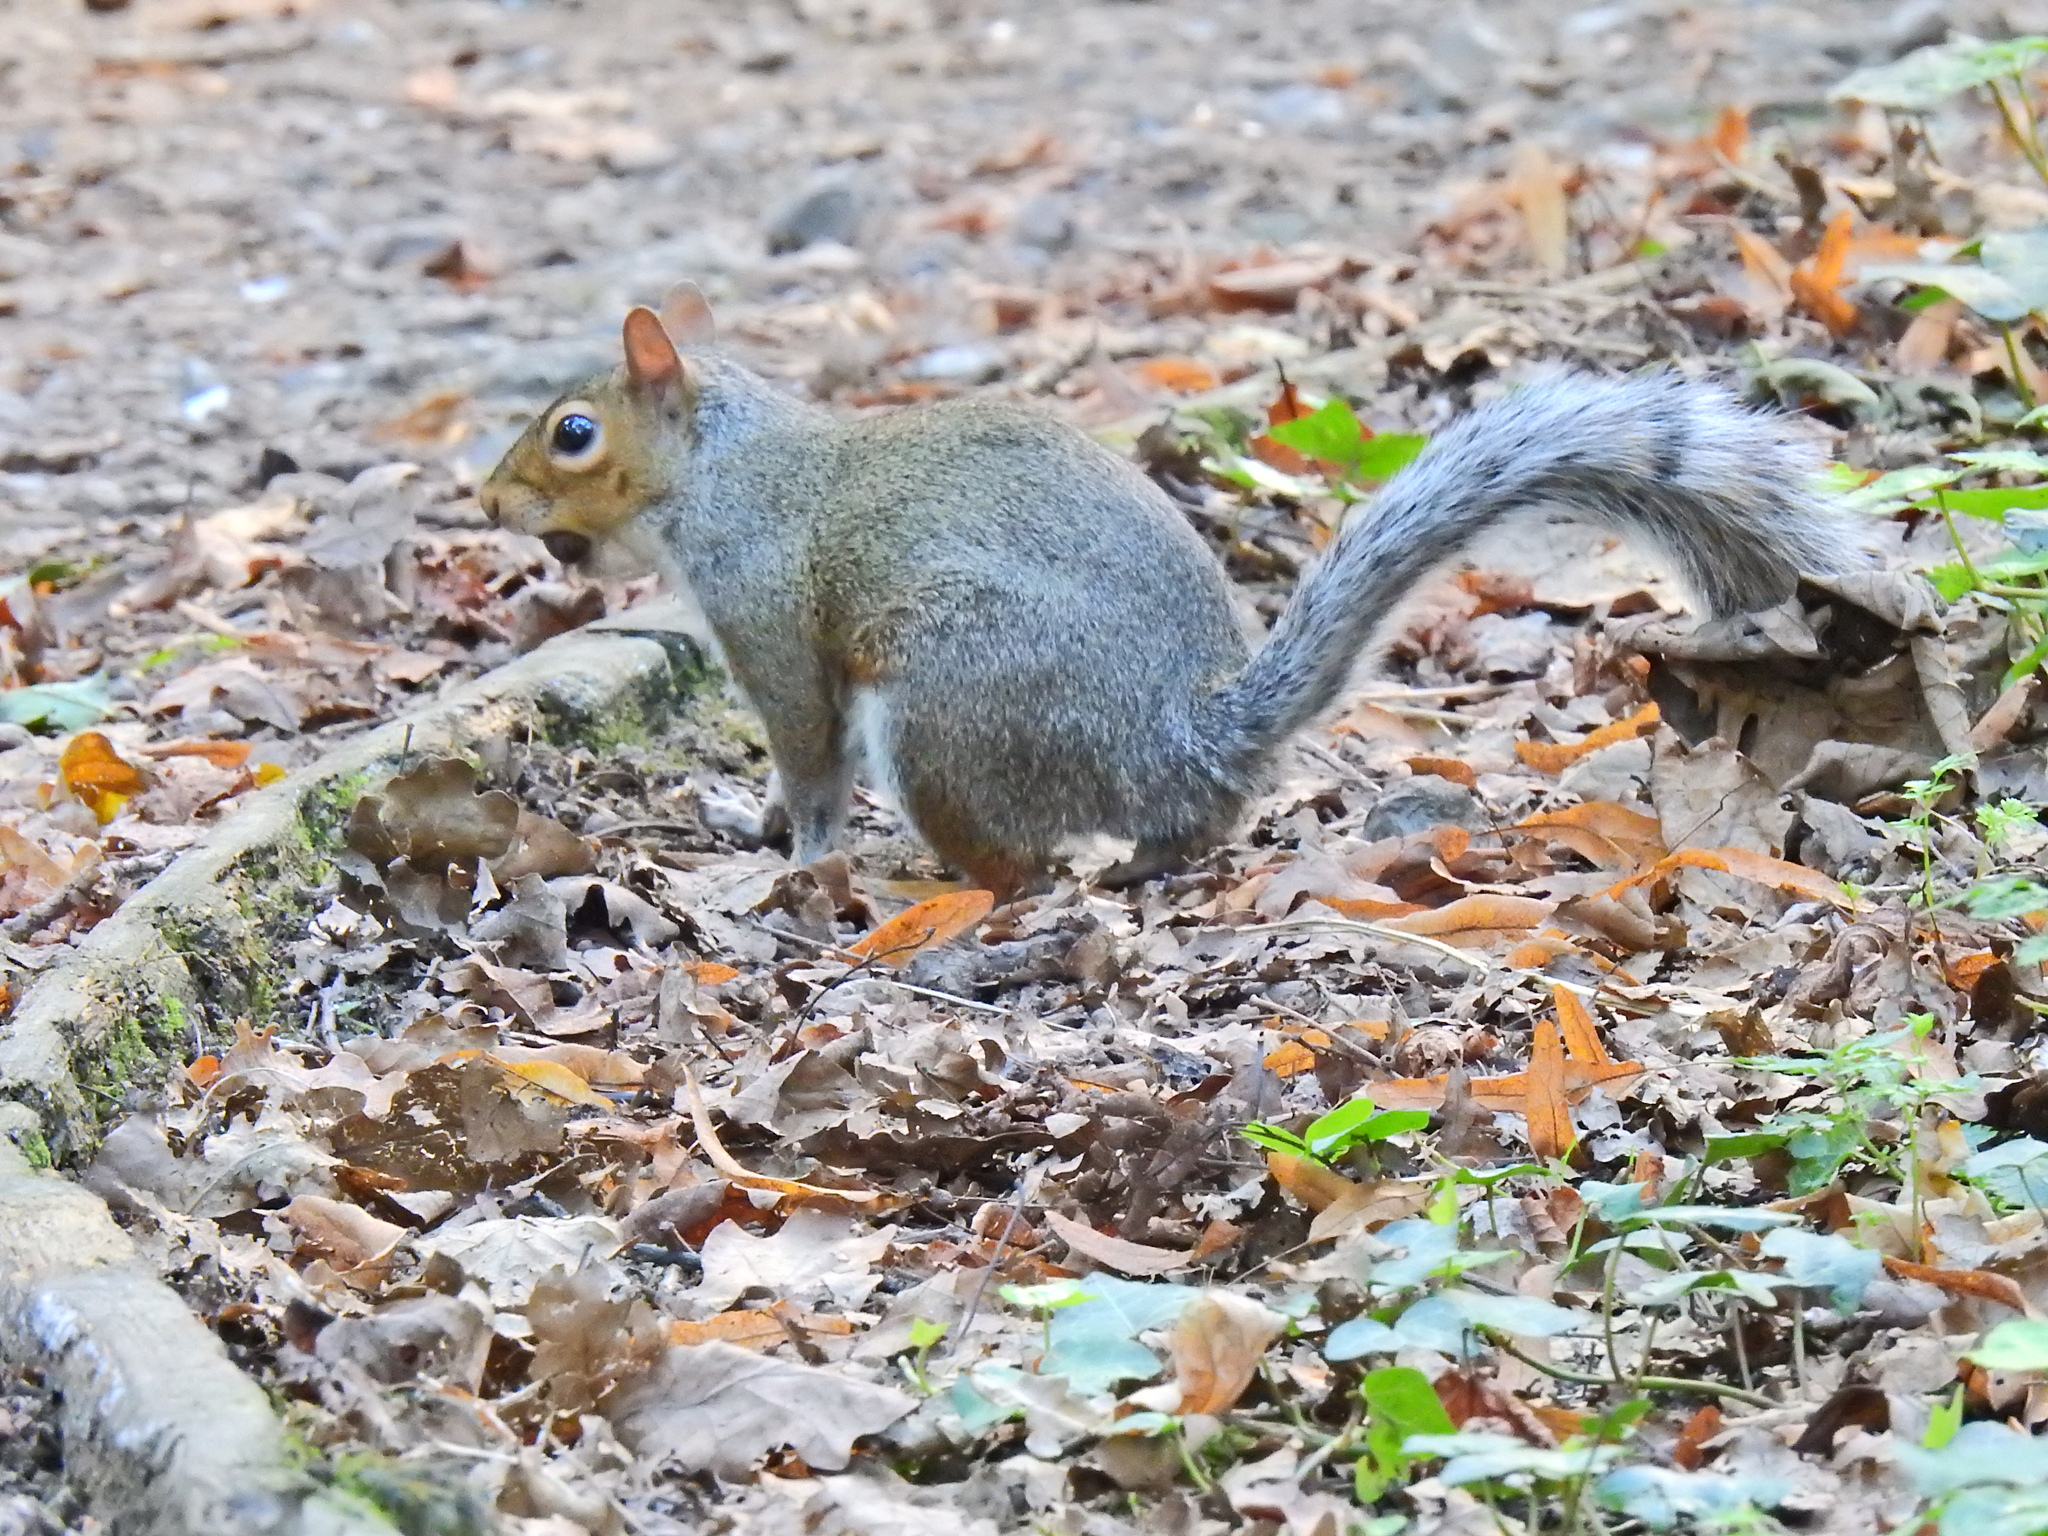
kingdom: Animalia
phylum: Chordata
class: Mammalia
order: Rodentia
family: Sciuridae
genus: Sciurus
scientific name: Sciurus carolinensis
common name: Eastern gray squirrel
